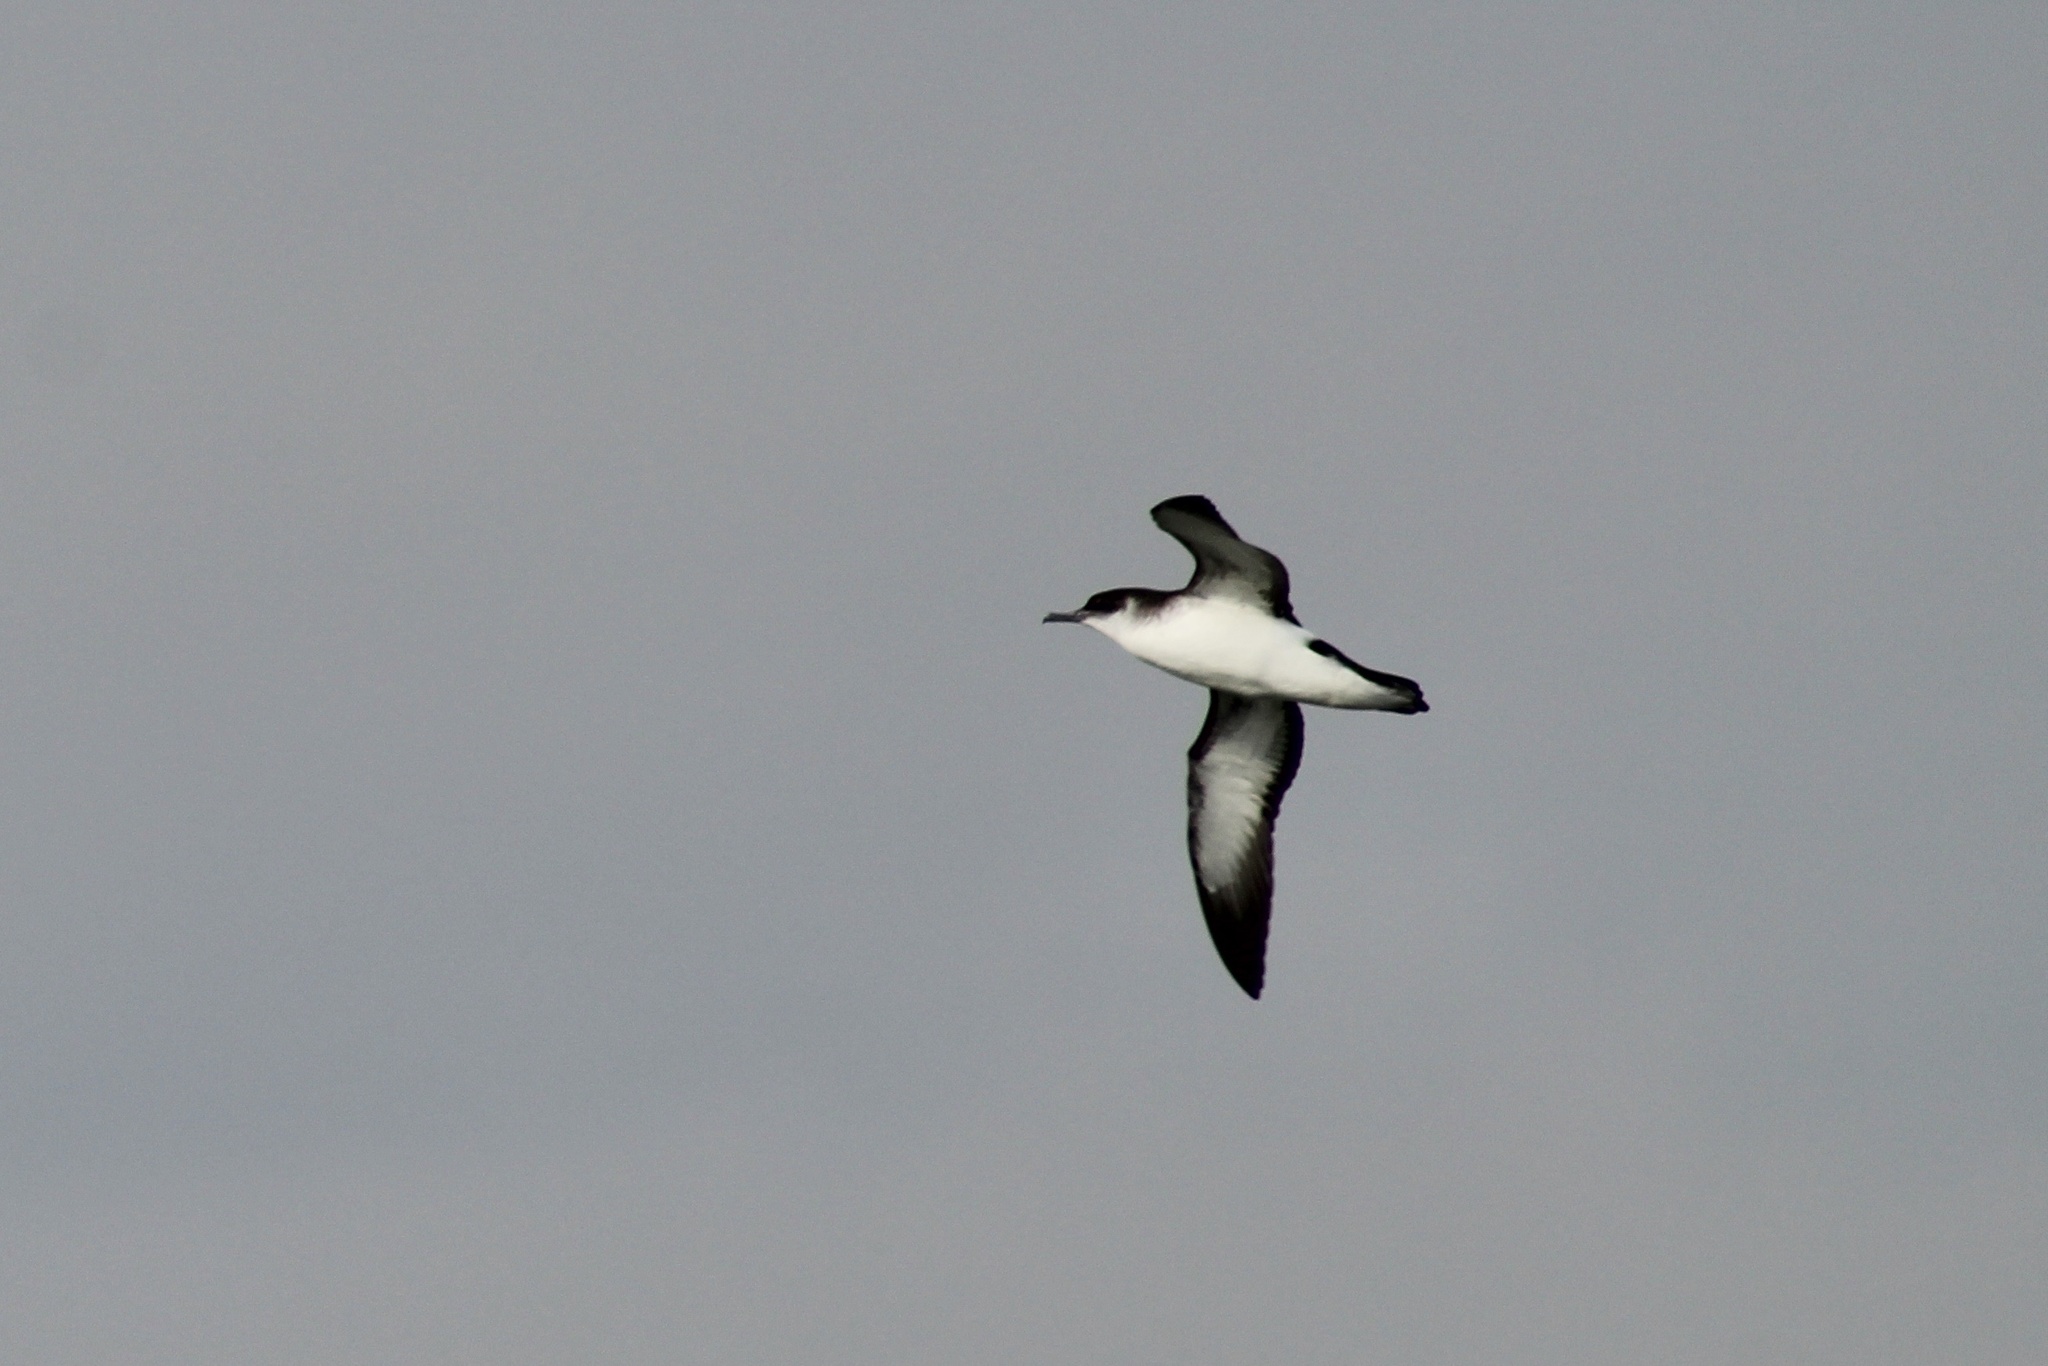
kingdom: Animalia
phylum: Chordata
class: Aves
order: Procellariiformes
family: Procellariidae
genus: Puffinus
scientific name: Puffinus puffinus
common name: Manx shearwater
